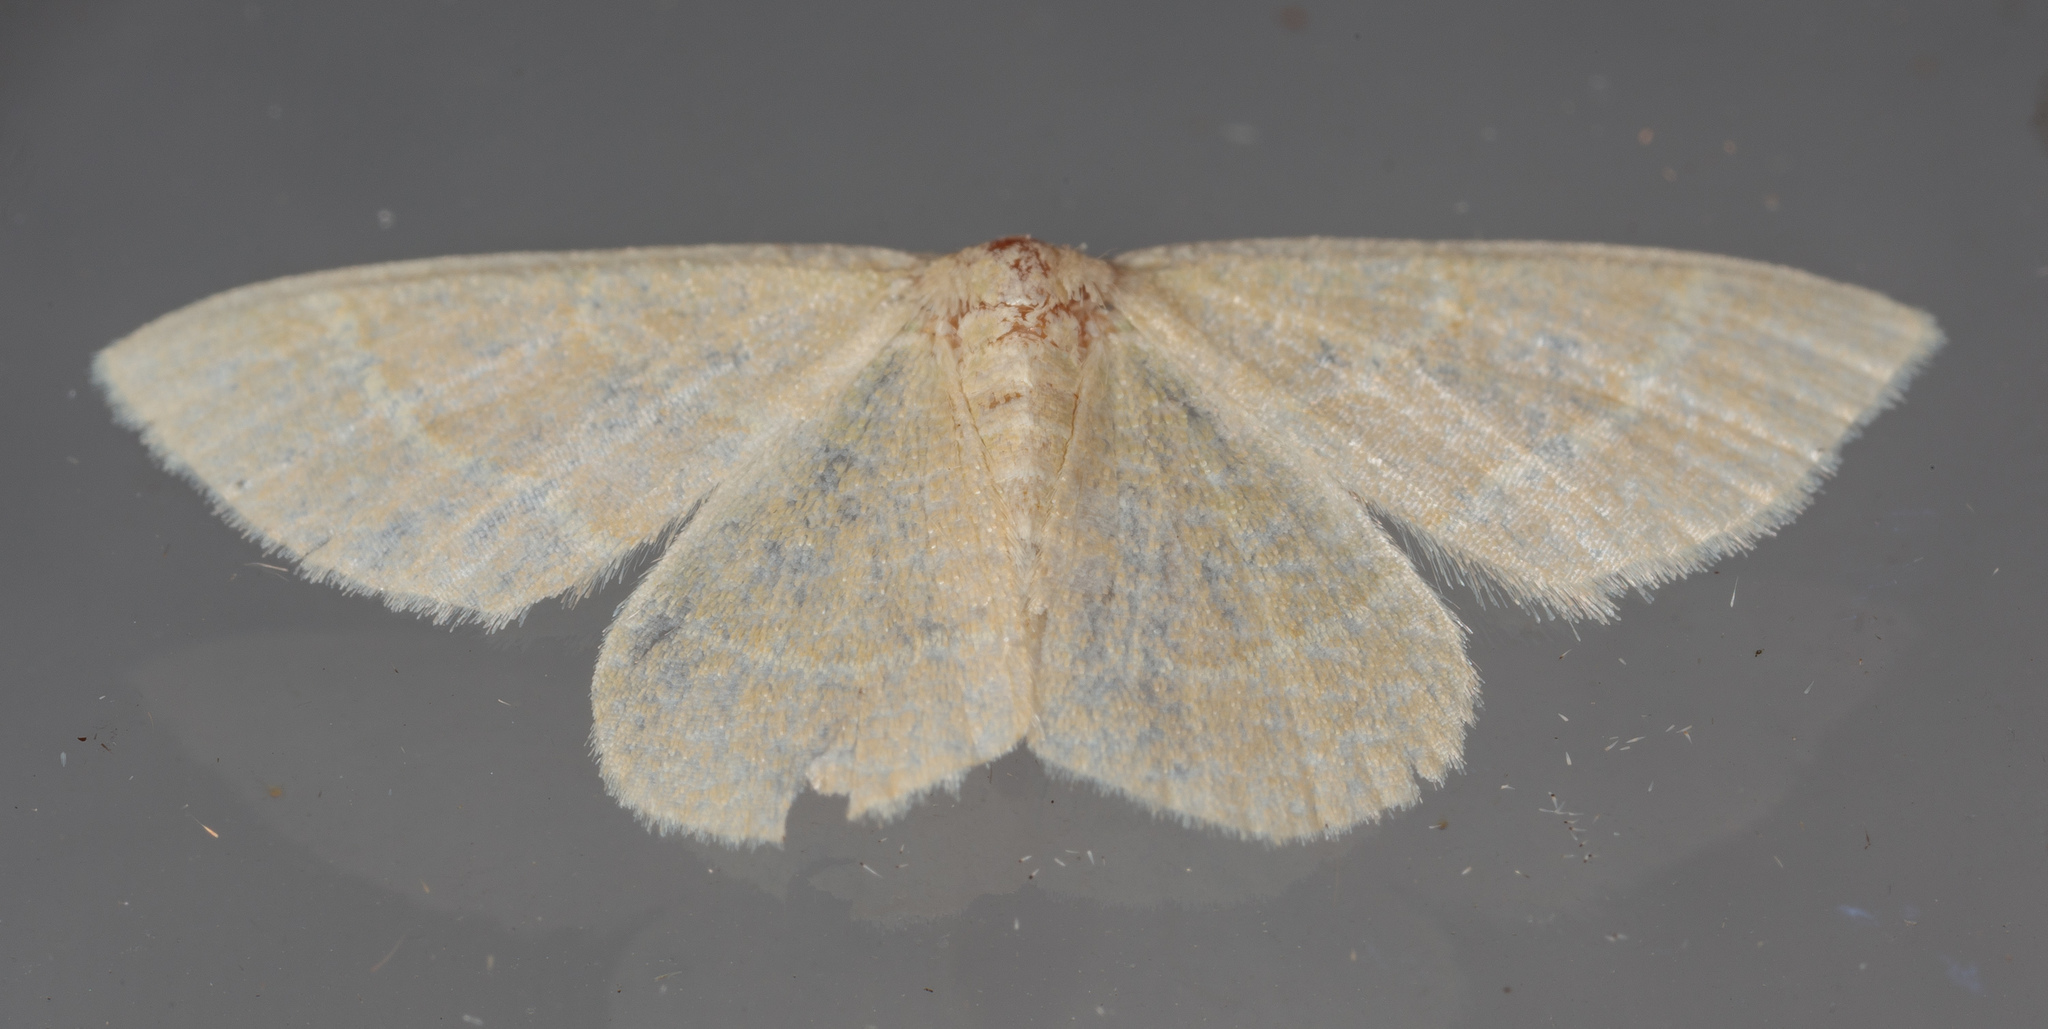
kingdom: Animalia
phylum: Arthropoda
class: Insecta
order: Lepidoptera
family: Geometridae
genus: Chlorochlamys
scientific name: Chlorochlamys chloroleucaria
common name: Blackberry looper
